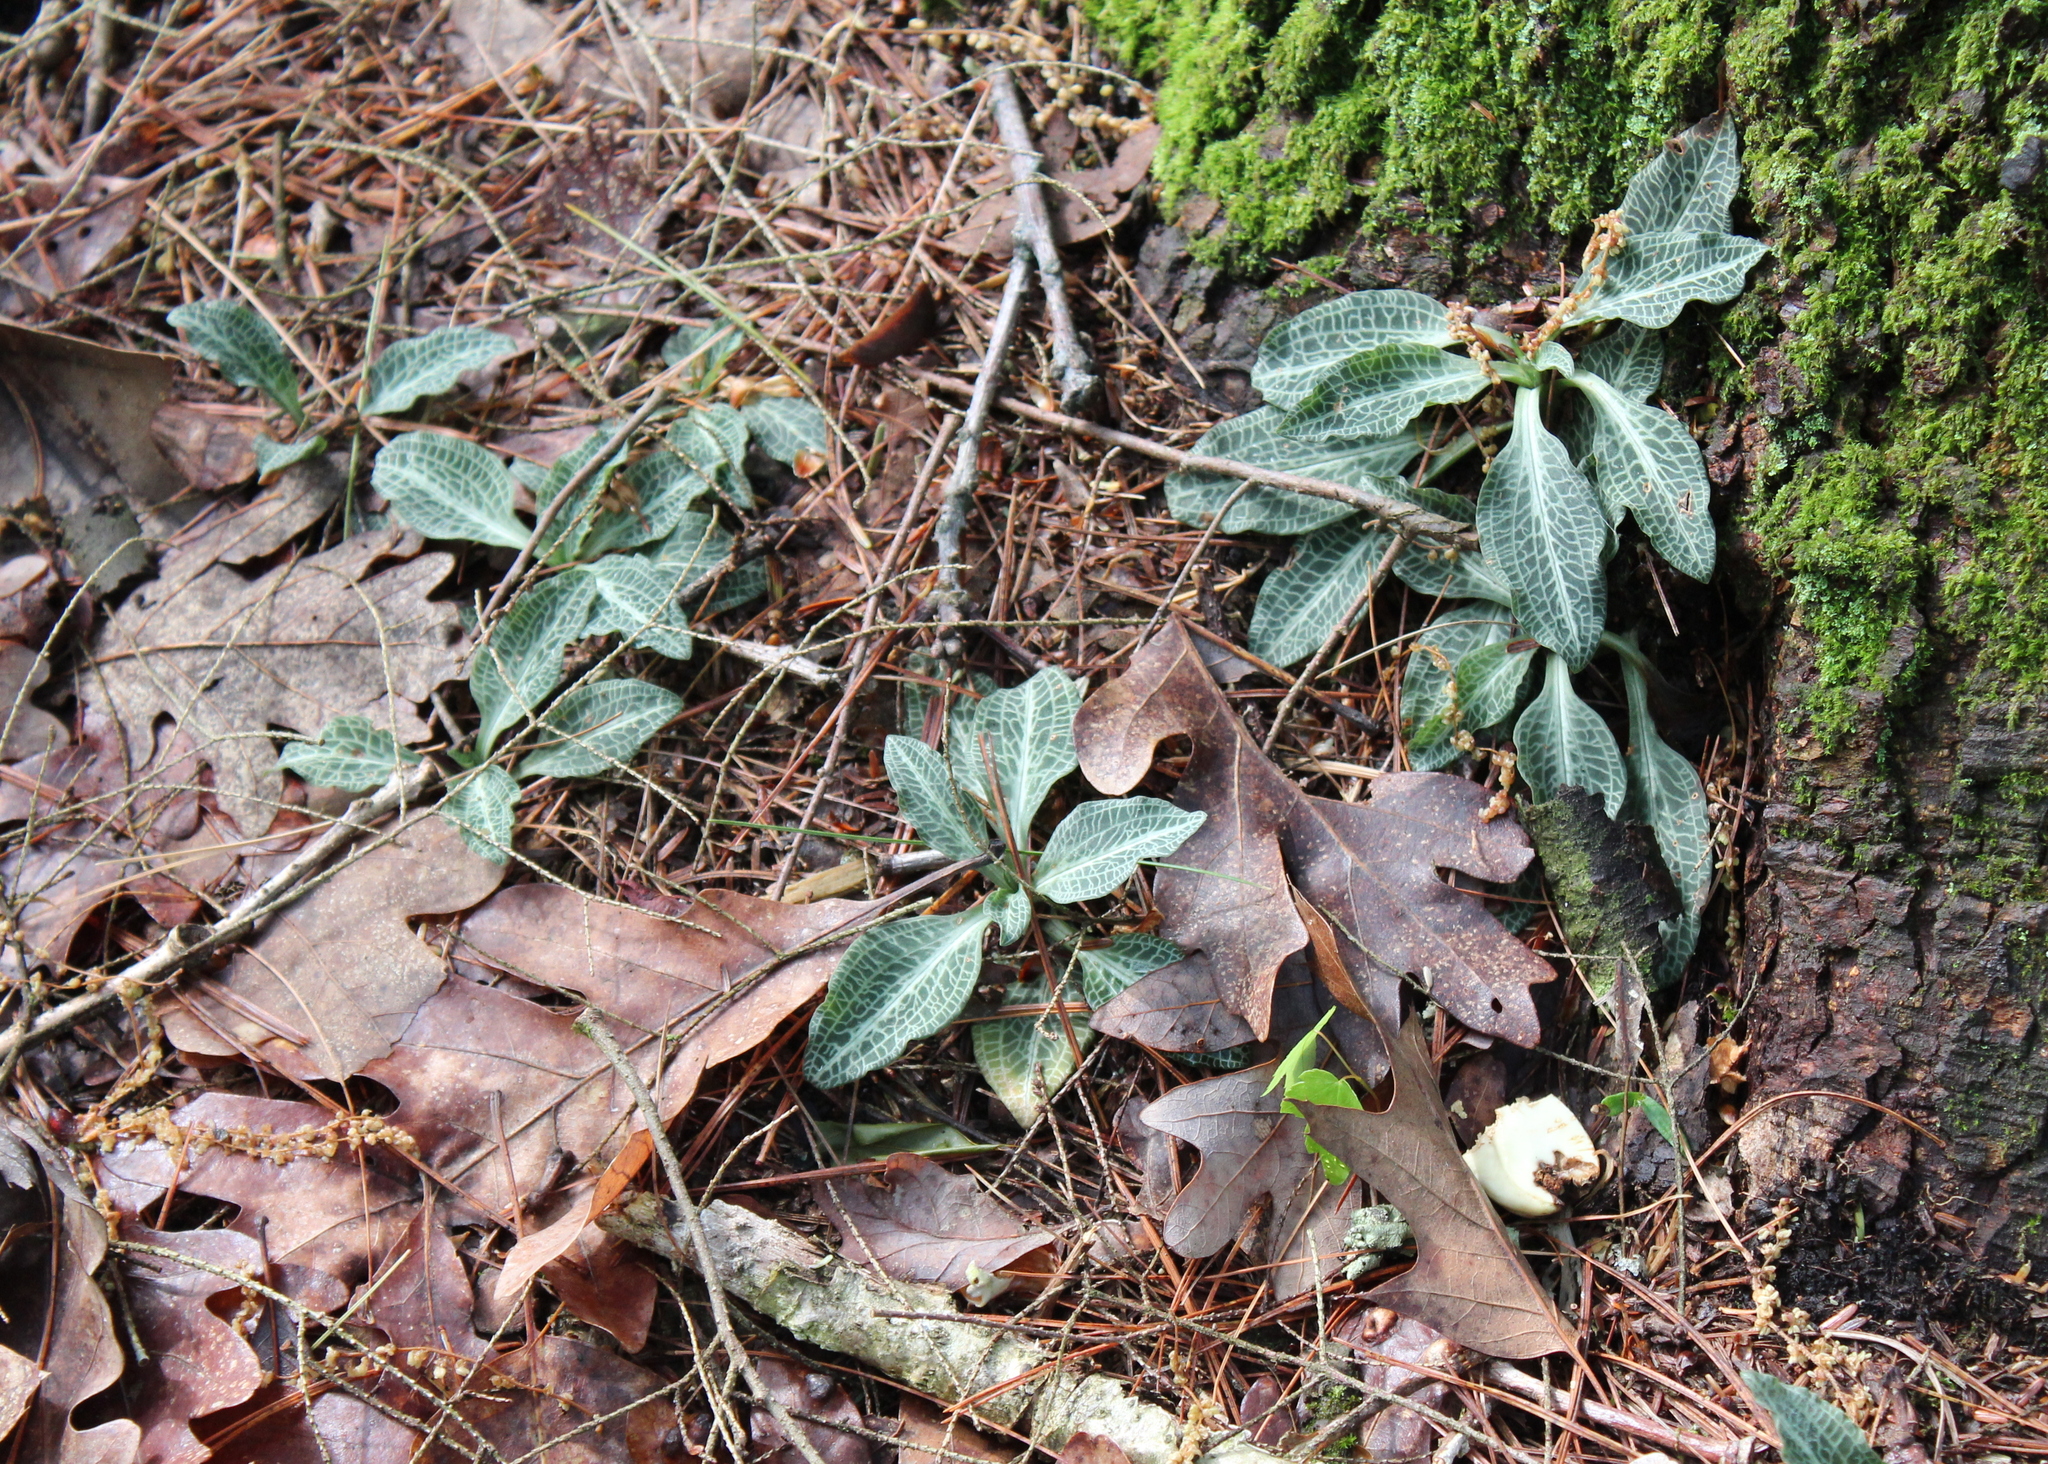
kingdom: Plantae
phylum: Tracheophyta
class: Liliopsida
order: Asparagales
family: Orchidaceae
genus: Goodyera
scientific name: Goodyera pubescens
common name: Downy rattlesnake-plantain
